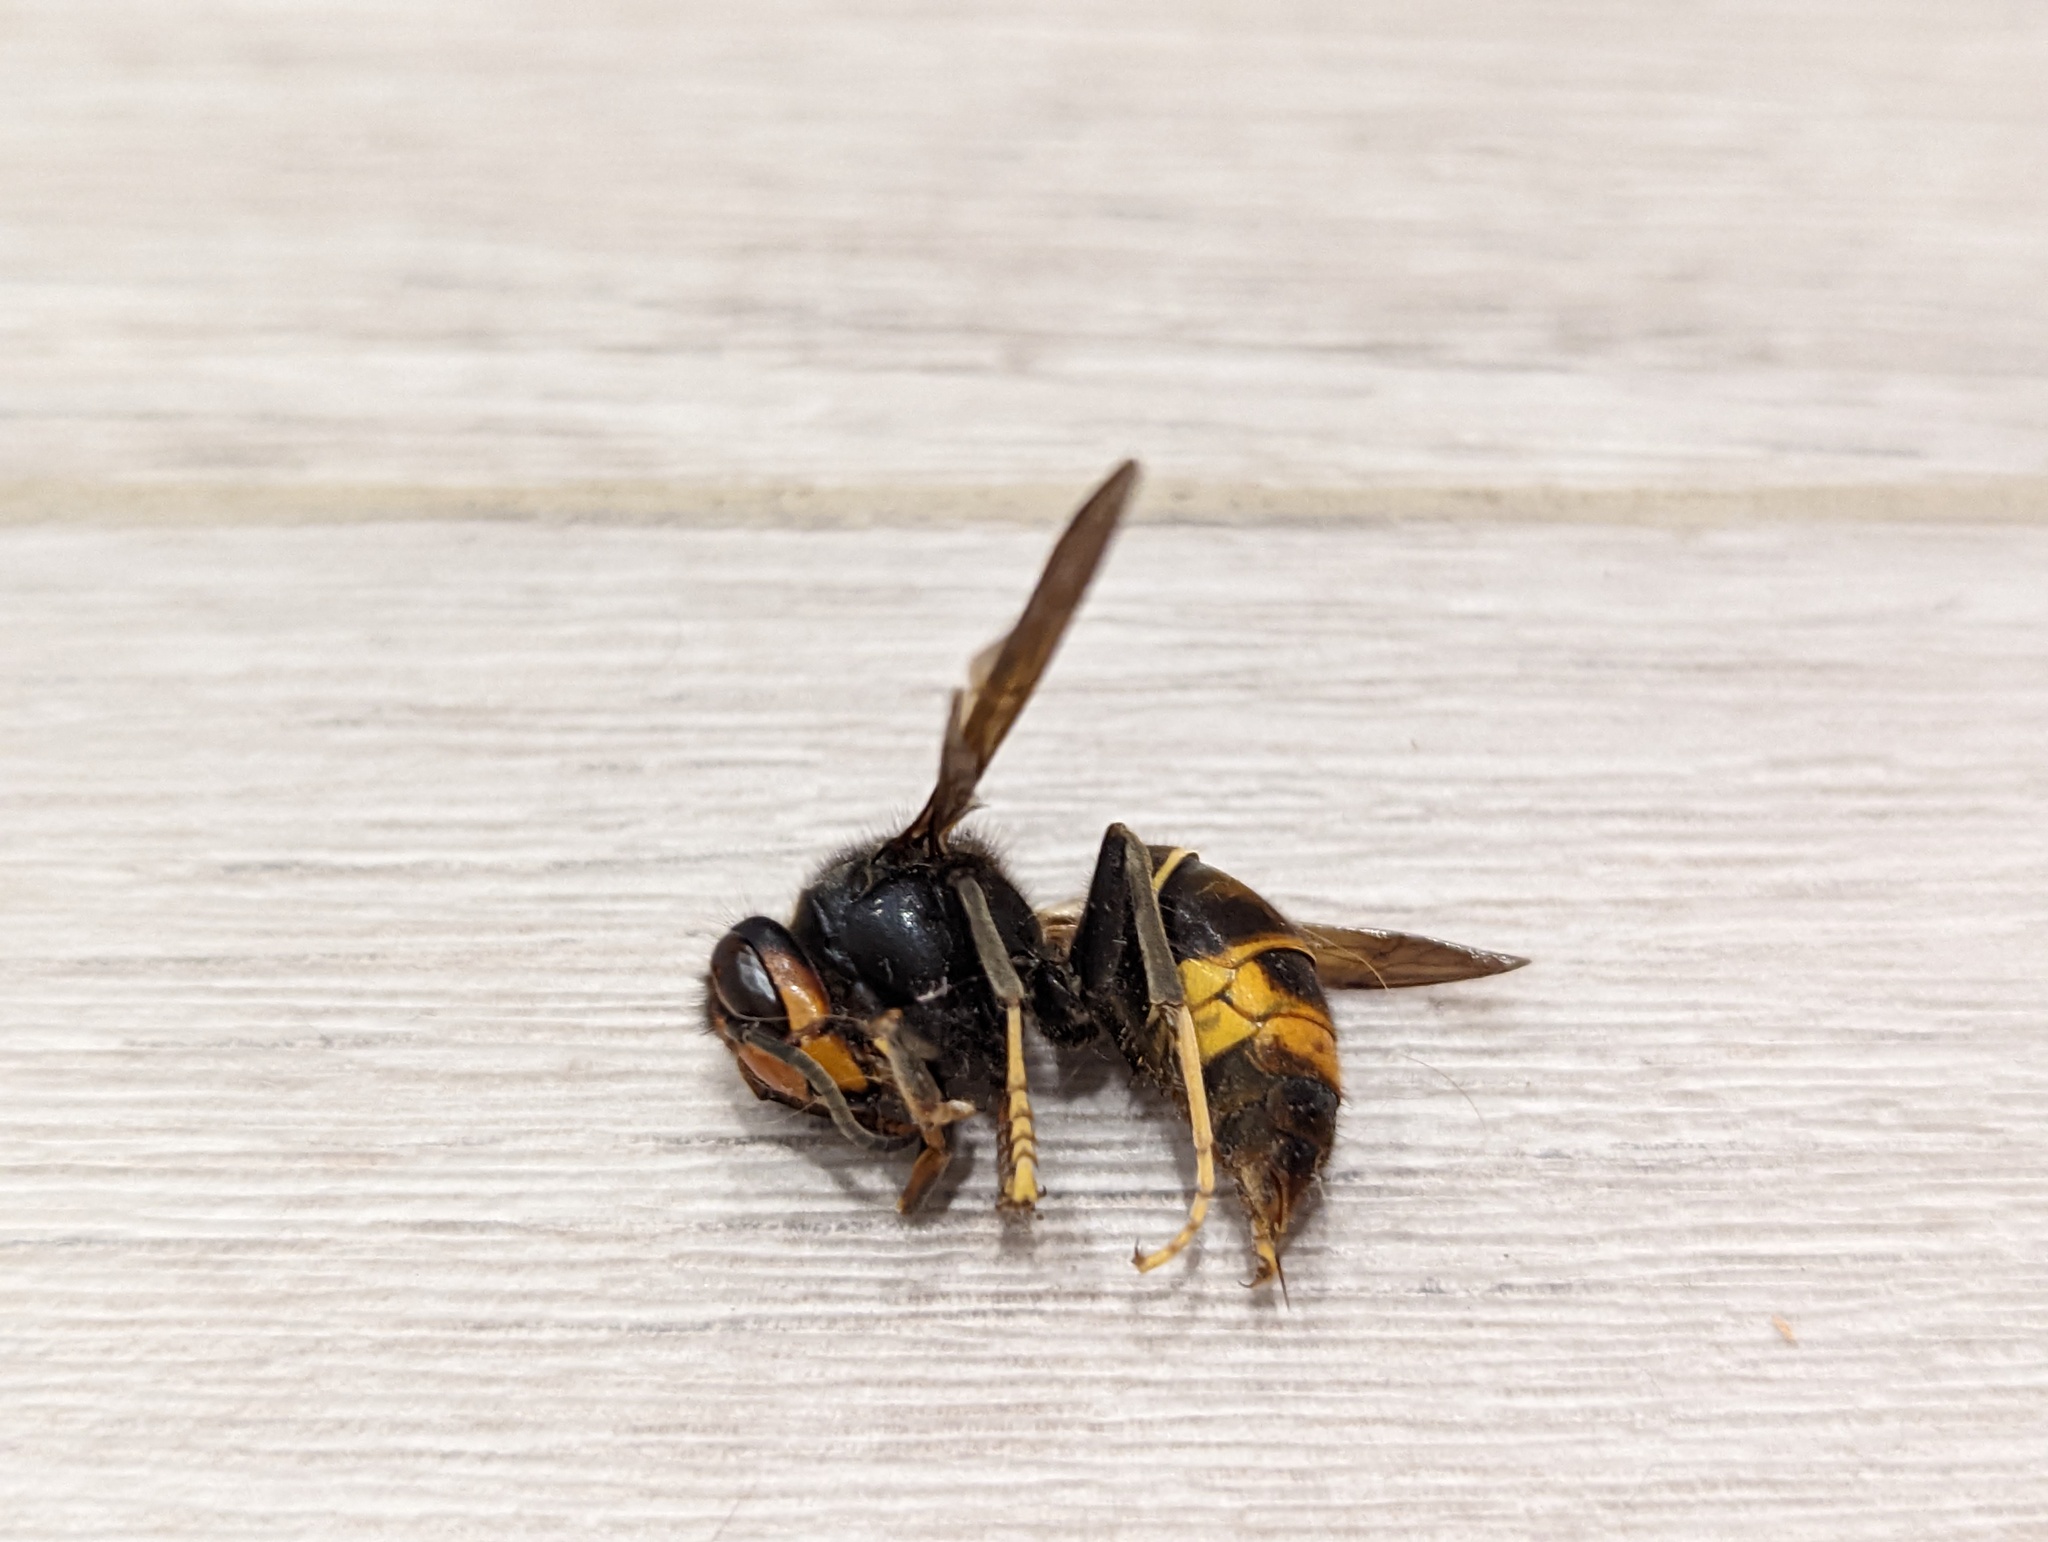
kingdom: Animalia
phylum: Arthropoda
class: Insecta
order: Hymenoptera
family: Vespidae
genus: Vespa
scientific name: Vespa velutina
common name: Asian hornet
